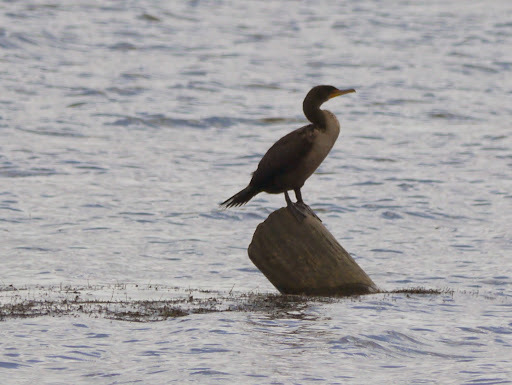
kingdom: Animalia
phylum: Chordata
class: Aves
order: Suliformes
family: Phalacrocoracidae
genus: Phalacrocorax
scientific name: Phalacrocorax auritus
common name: Double-crested cormorant
